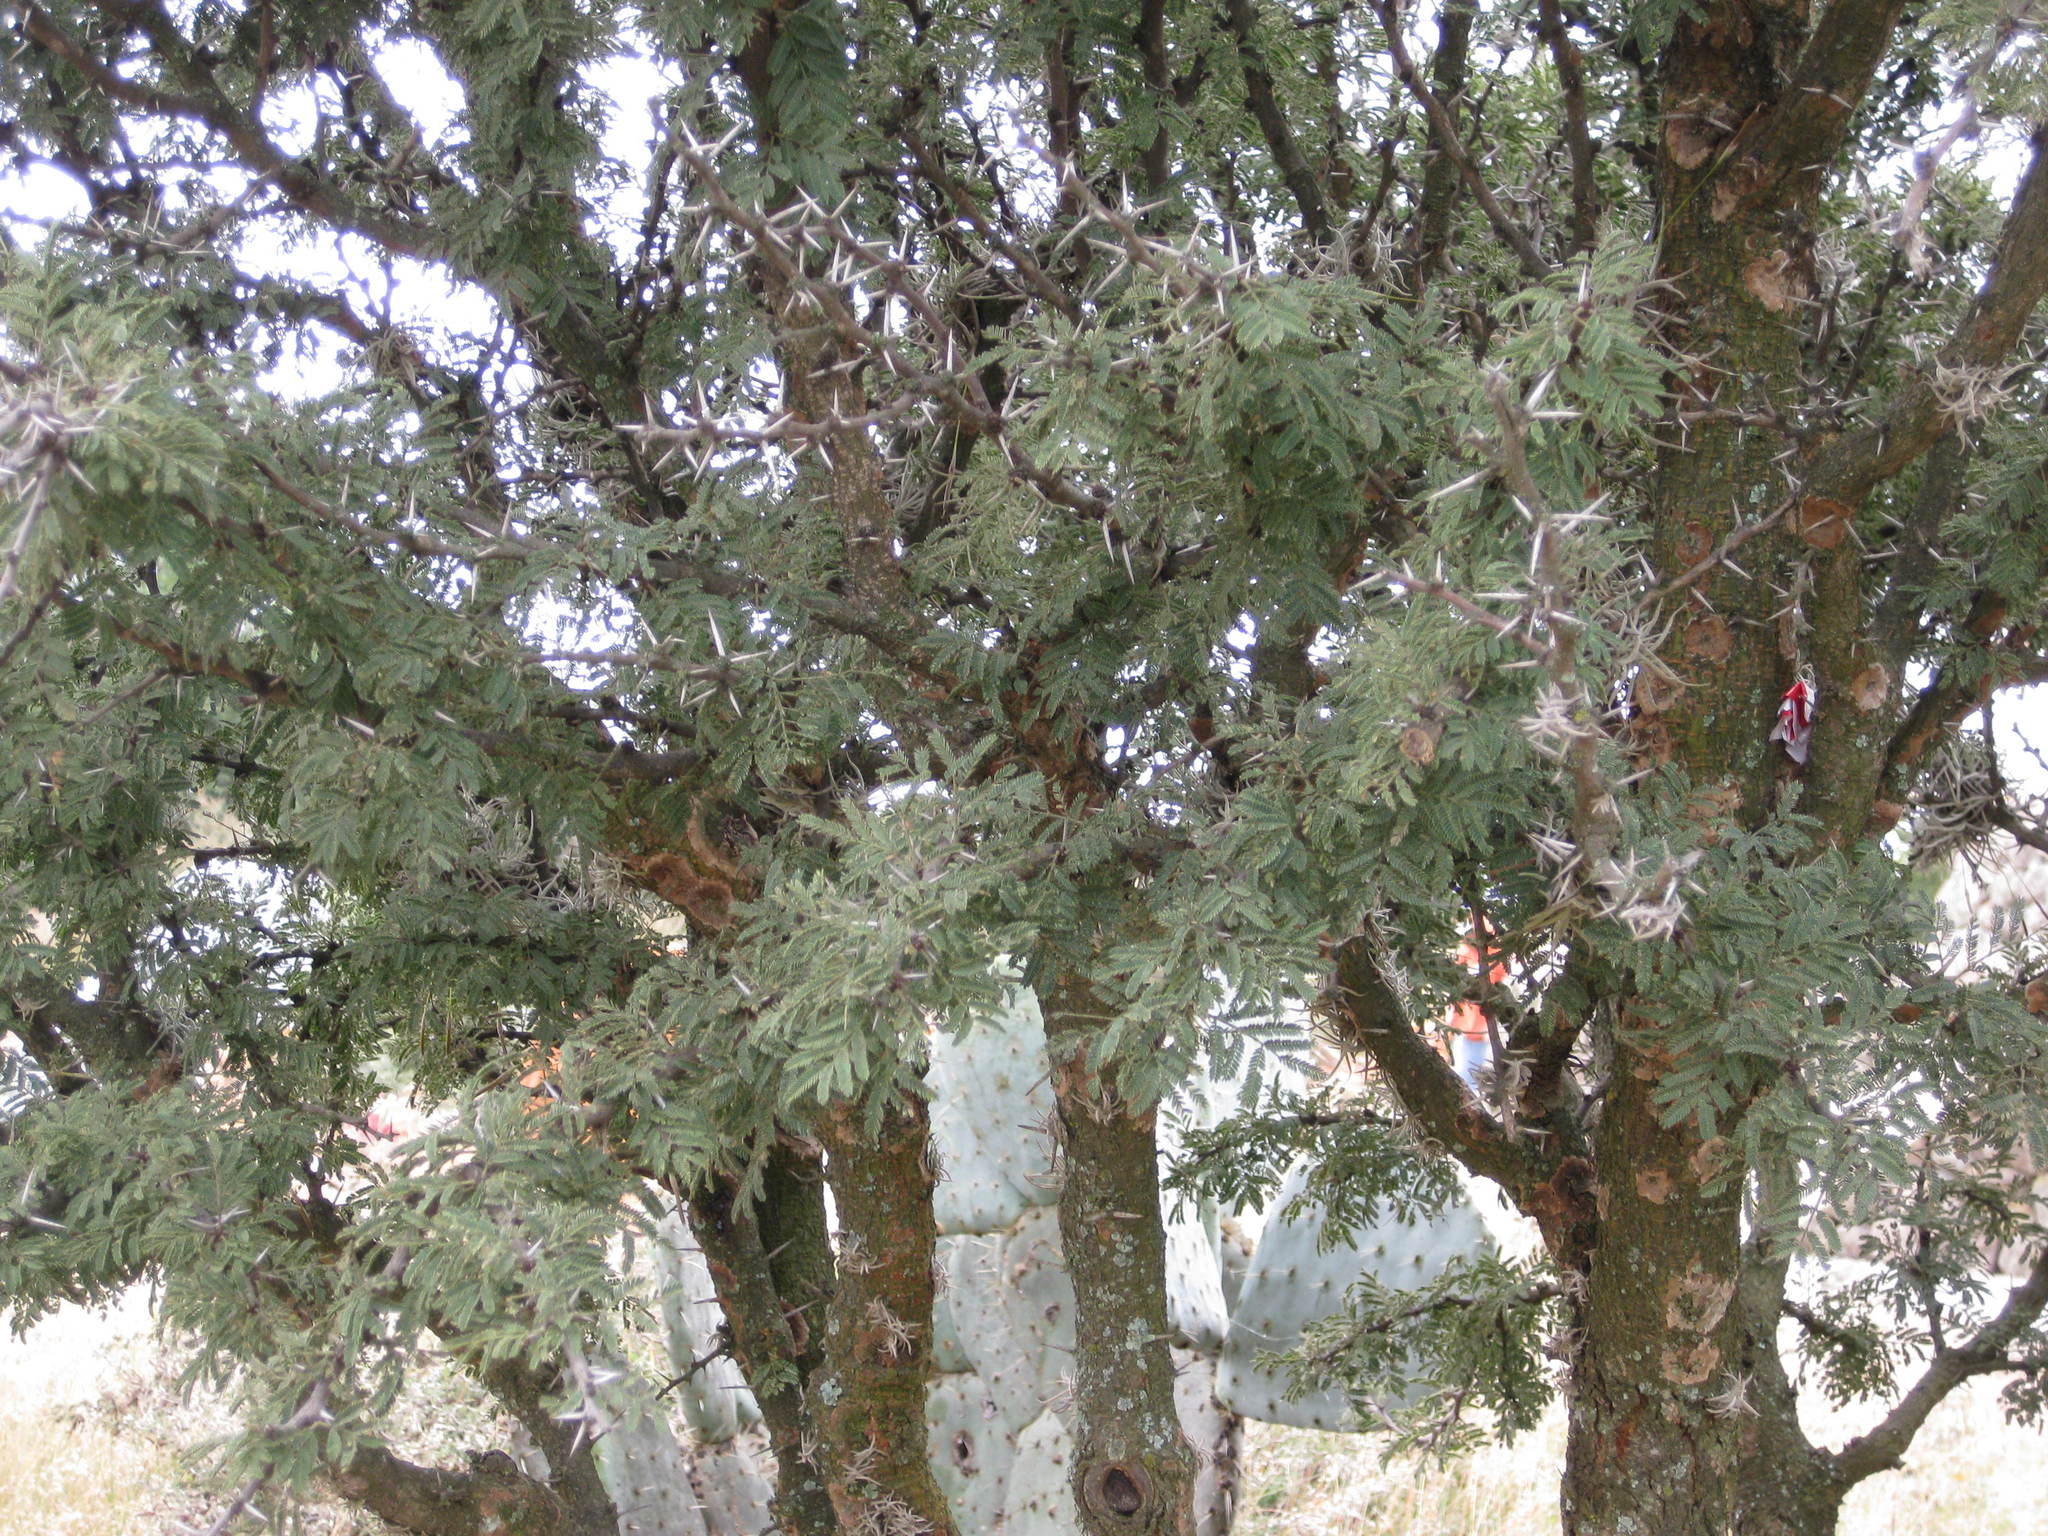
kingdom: Plantae
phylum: Tracheophyta
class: Magnoliopsida
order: Fabales
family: Fabaceae
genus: Vachellia
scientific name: Vachellia schaffneri
